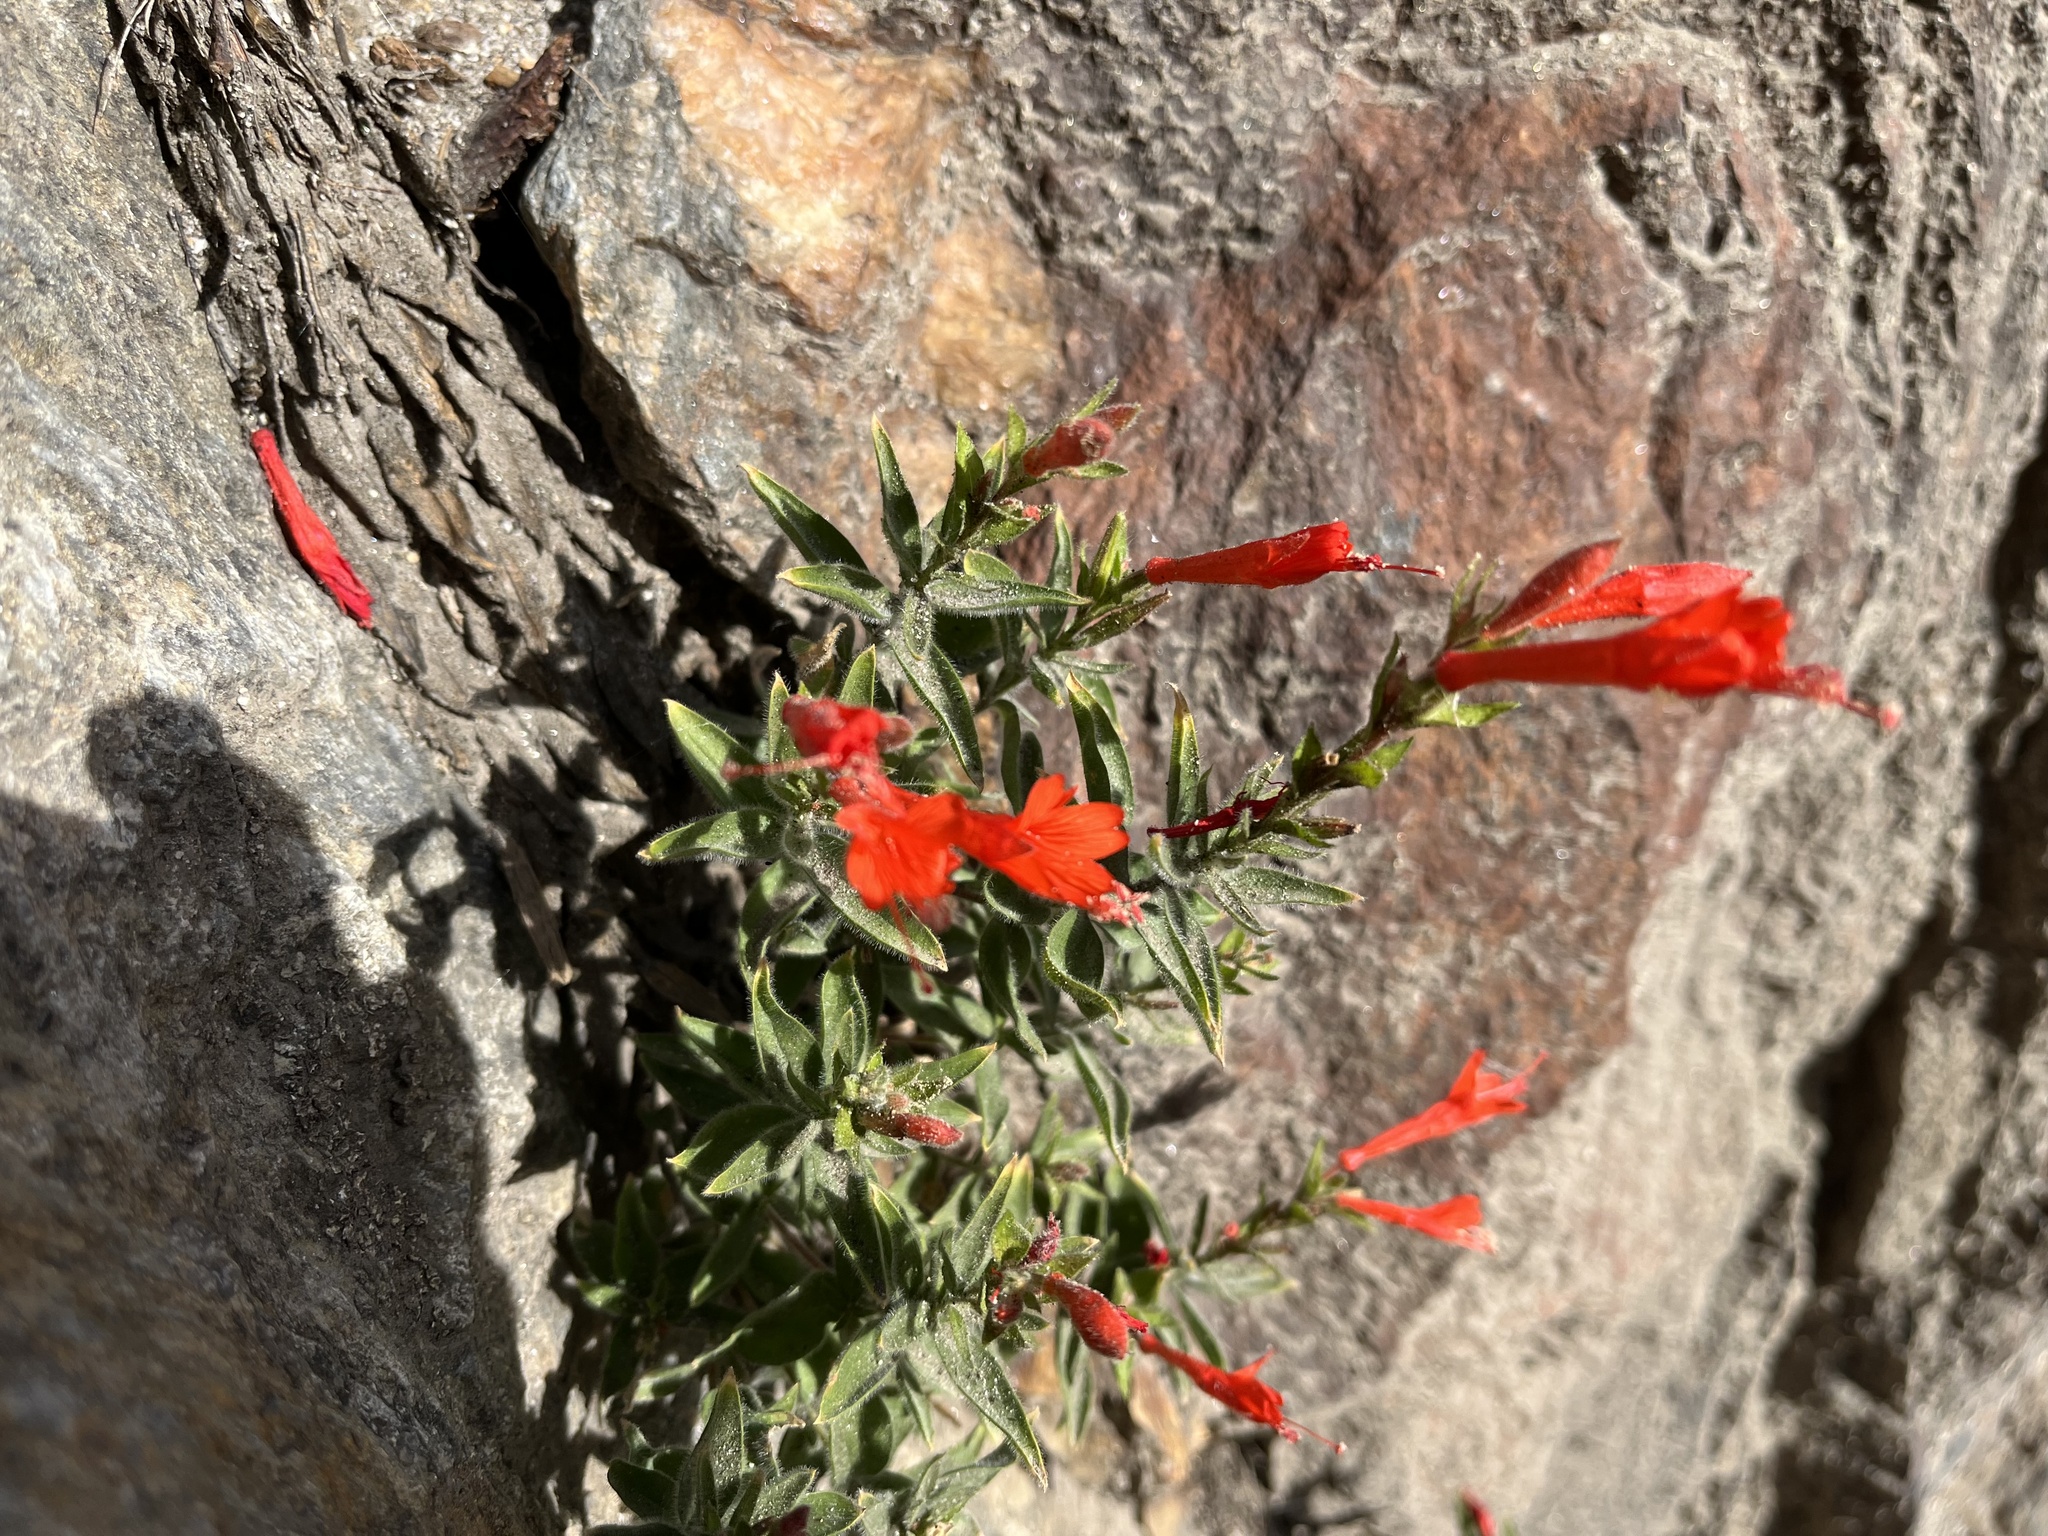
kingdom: Plantae
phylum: Tracheophyta
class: Magnoliopsida
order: Myrtales
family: Onagraceae
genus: Epilobium
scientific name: Epilobium canum
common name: California-fuchsia
